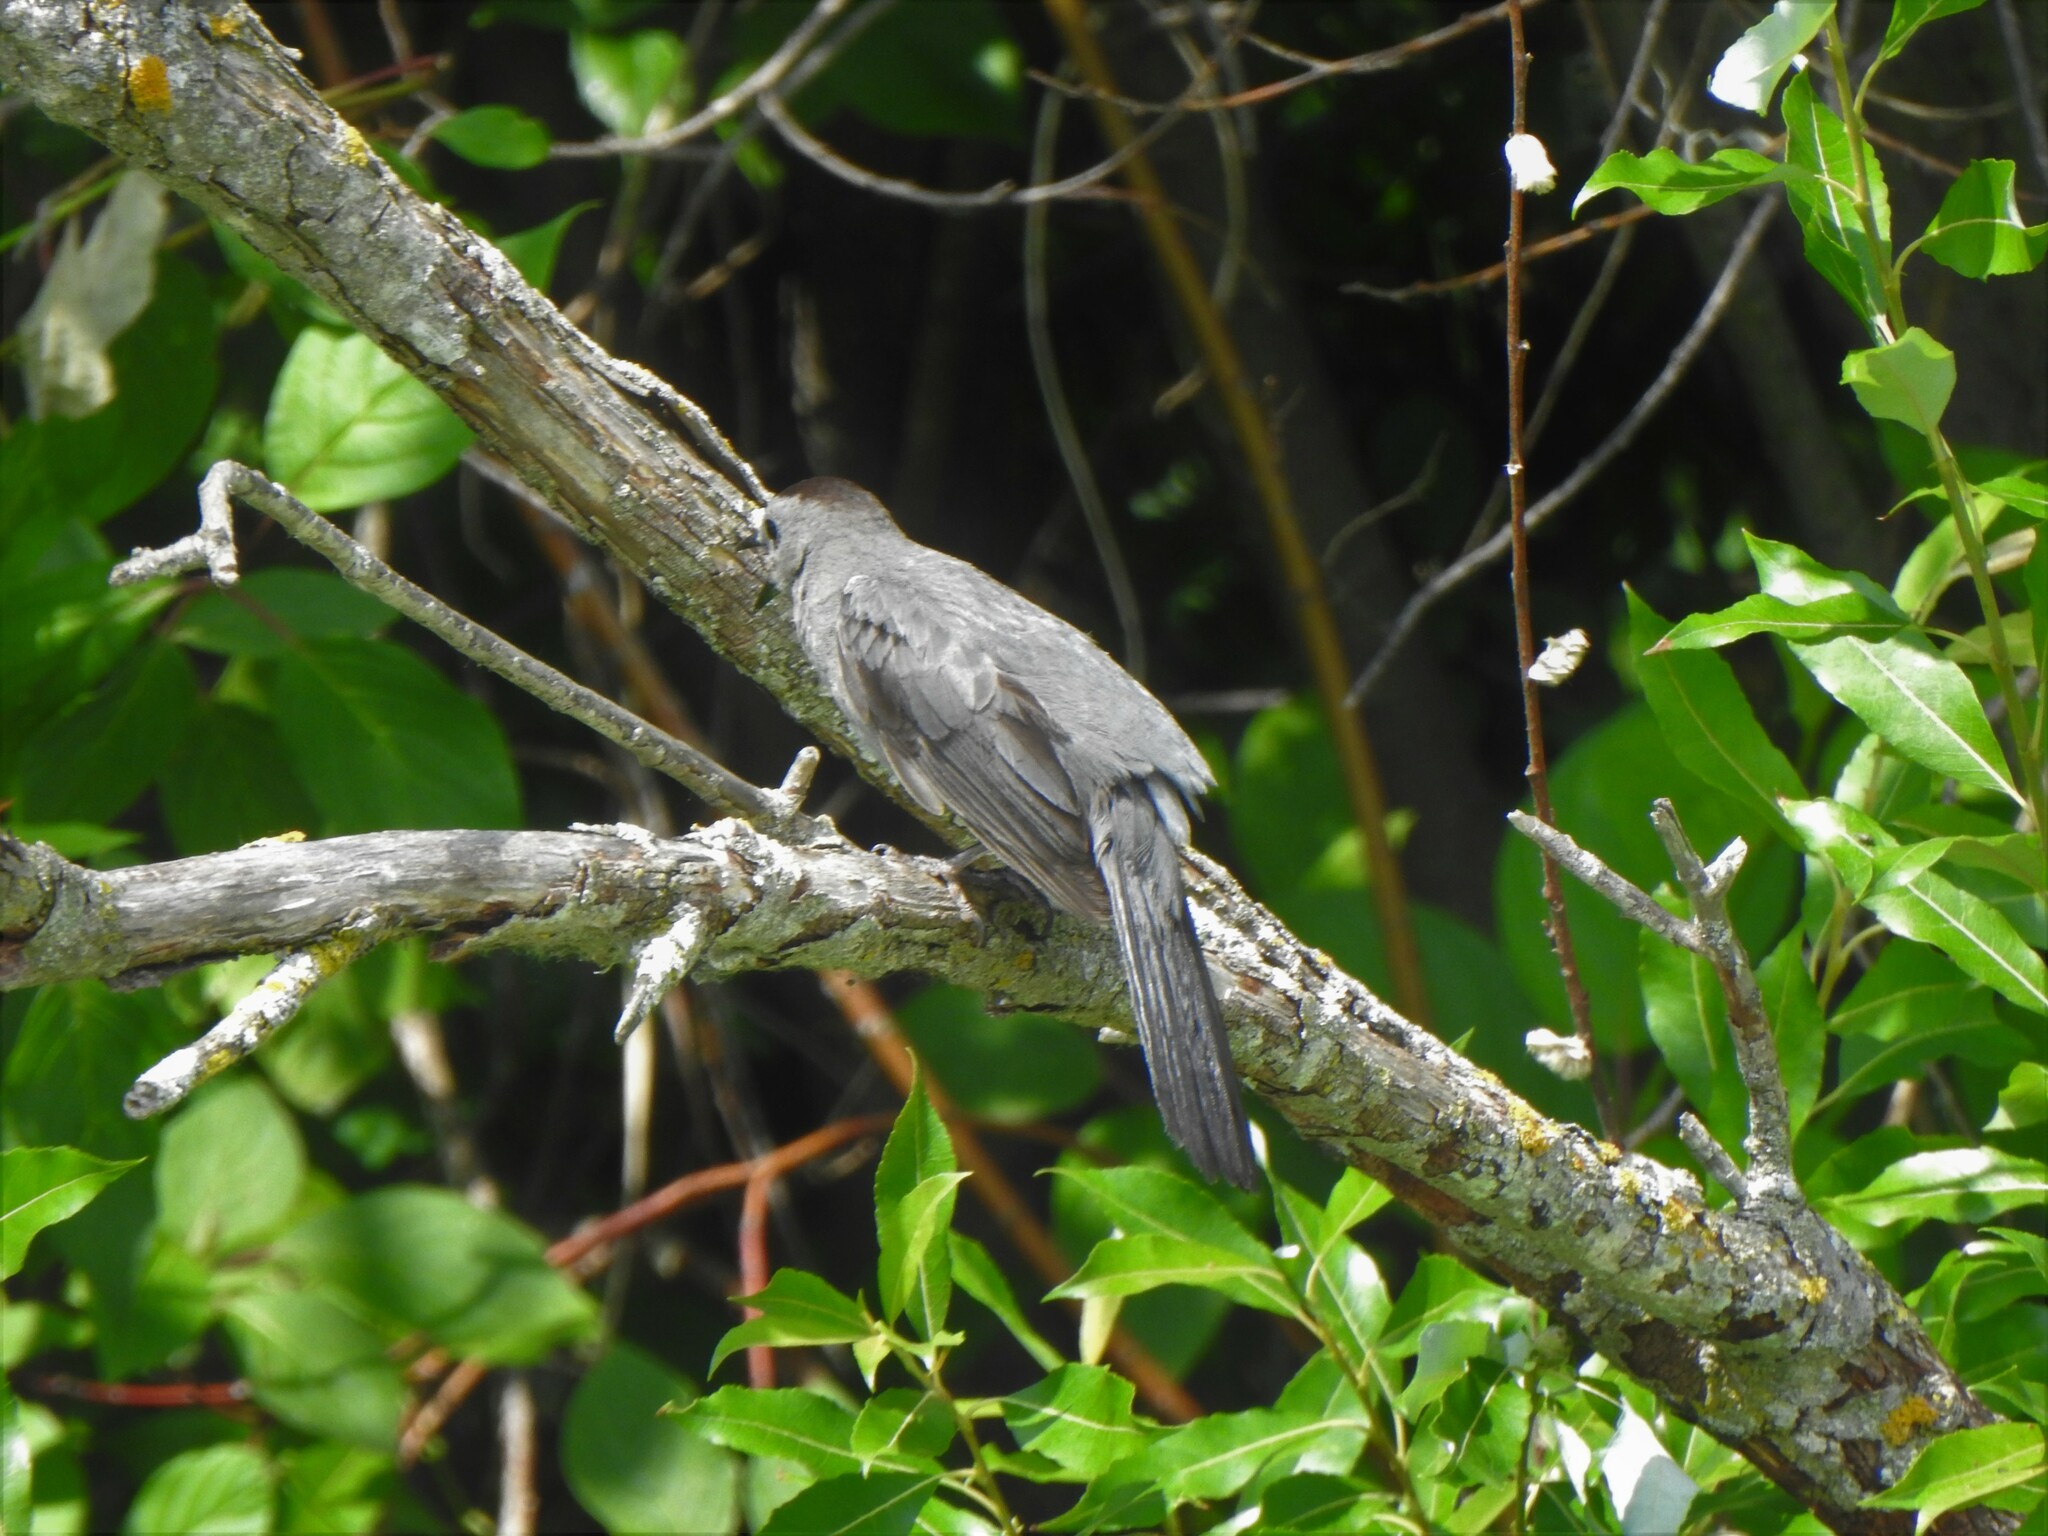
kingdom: Animalia
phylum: Chordata
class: Aves
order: Passeriformes
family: Mimidae
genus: Dumetella
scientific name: Dumetella carolinensis
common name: Gray catbird
